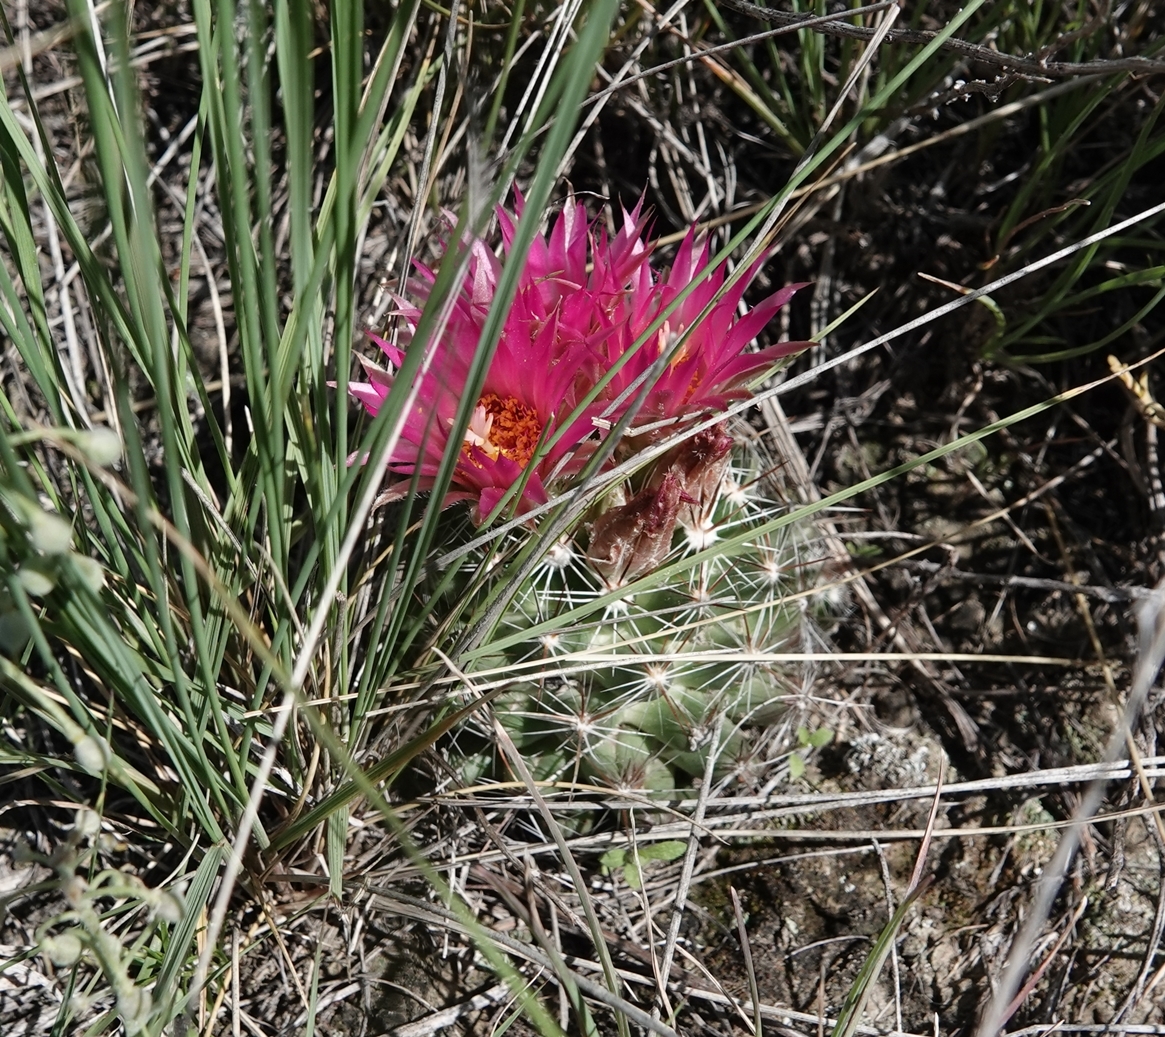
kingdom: Plantae
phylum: Tracheophyta
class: Magnoliopsida
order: Caryophyllales
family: Cactaceae
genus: Pelecyphora
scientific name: Pelecyphora vivipara
